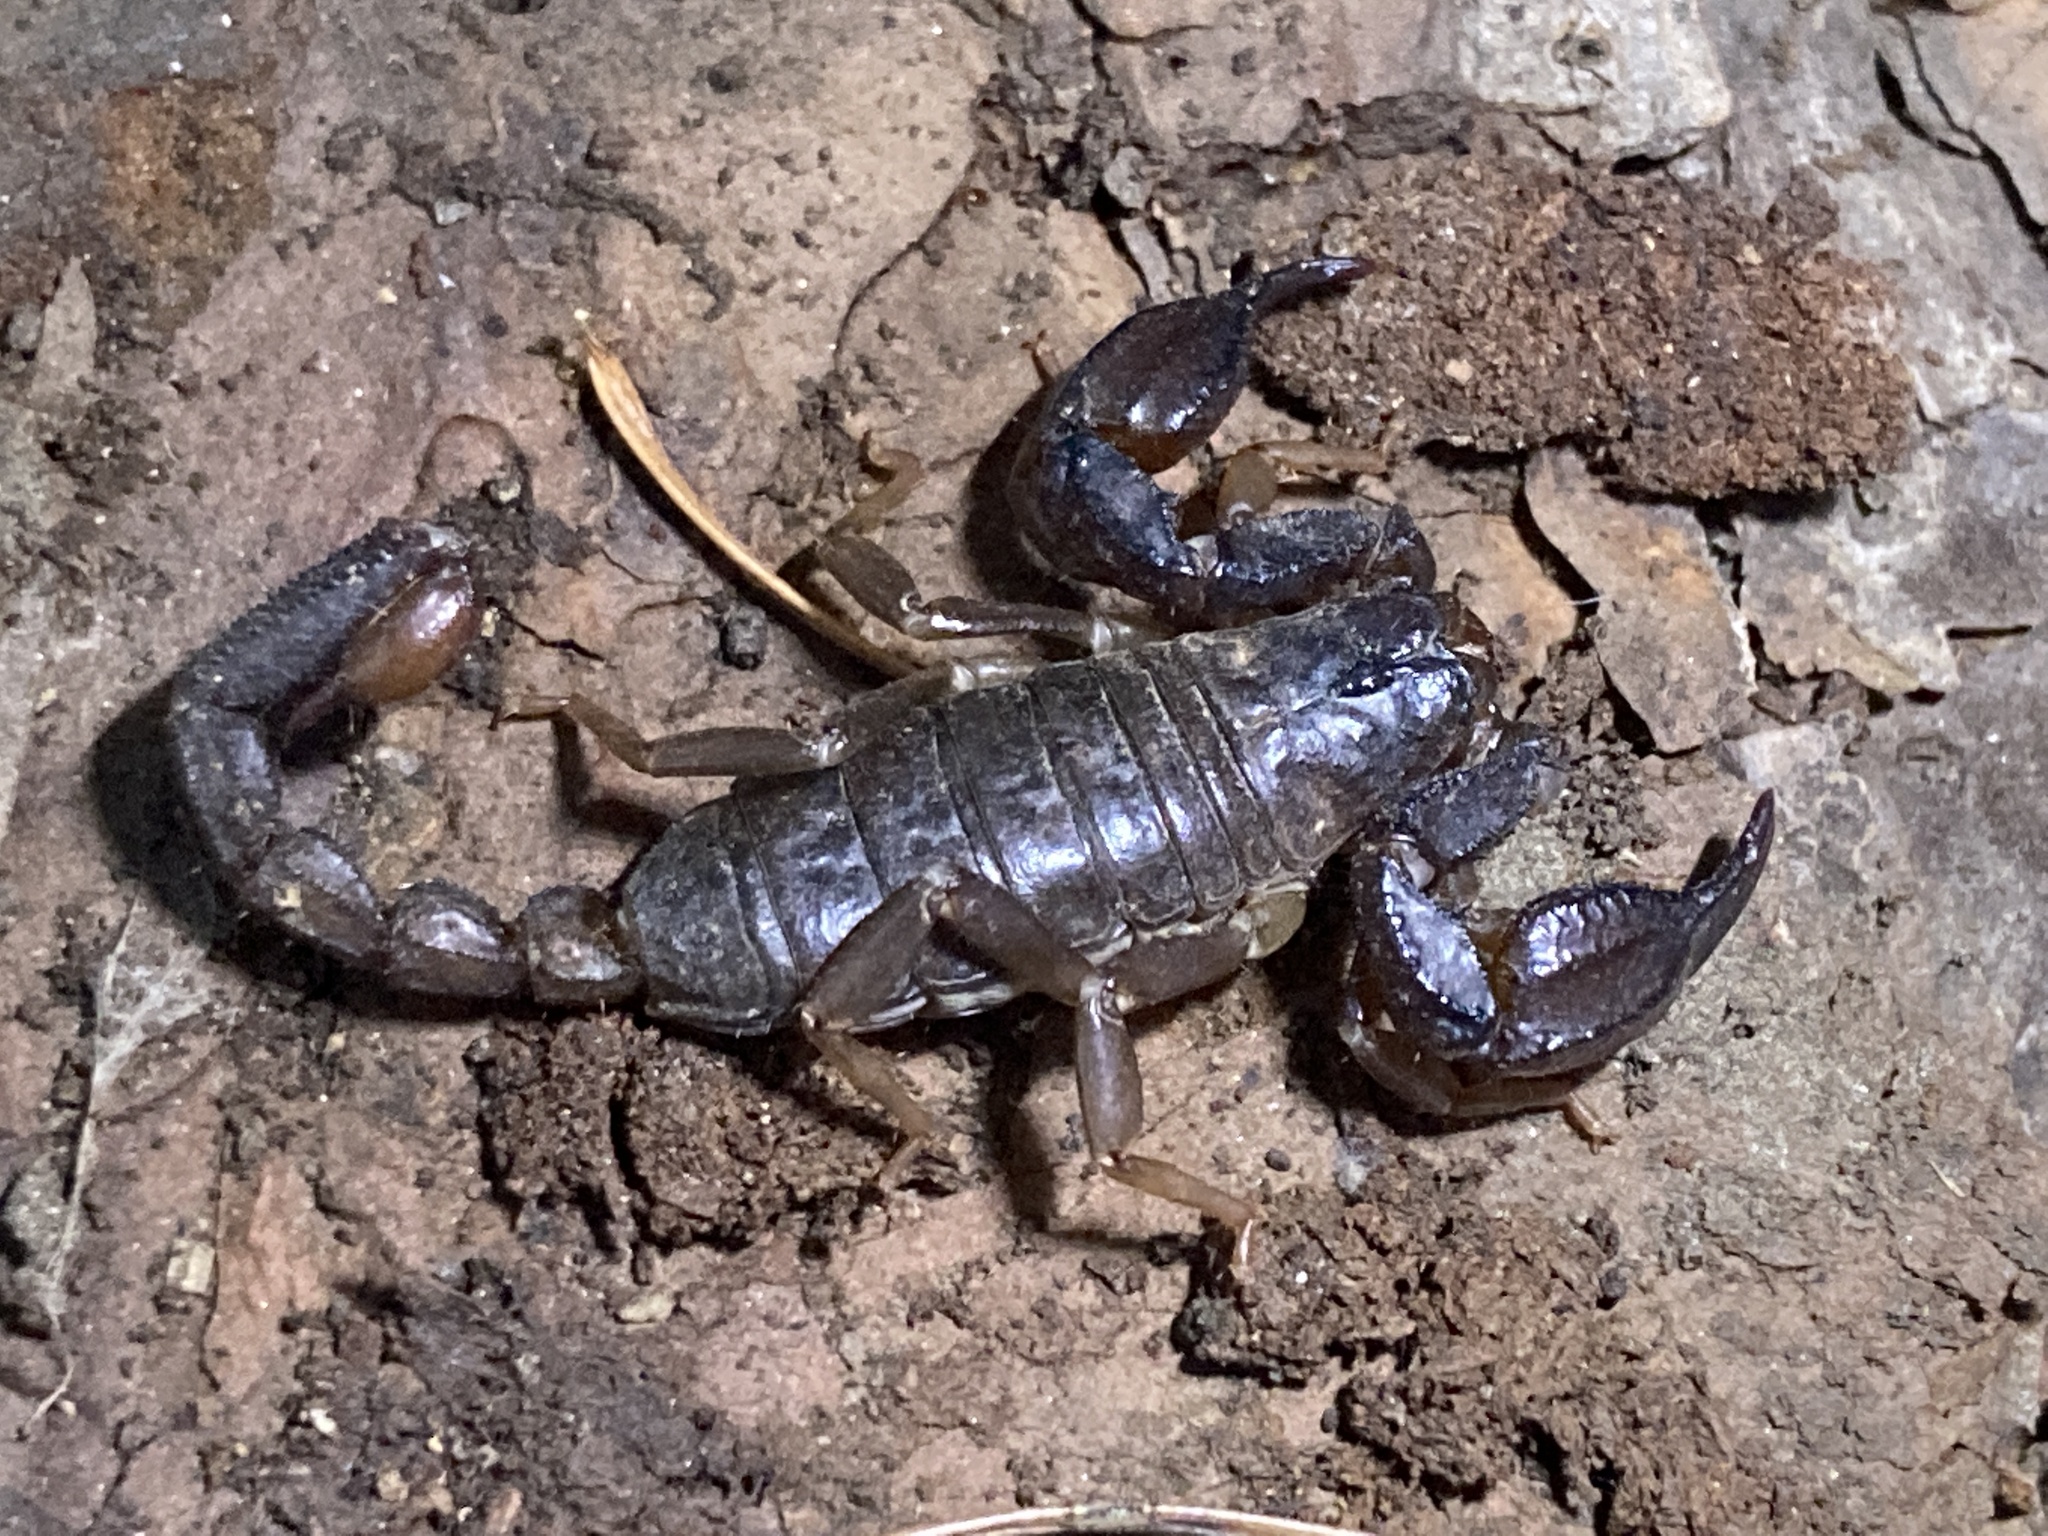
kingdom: Animalia
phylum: Arthropoda
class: Arachnida
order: Scorpiones
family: Chactidae
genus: Uroctonus
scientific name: Uroctonus mordax
